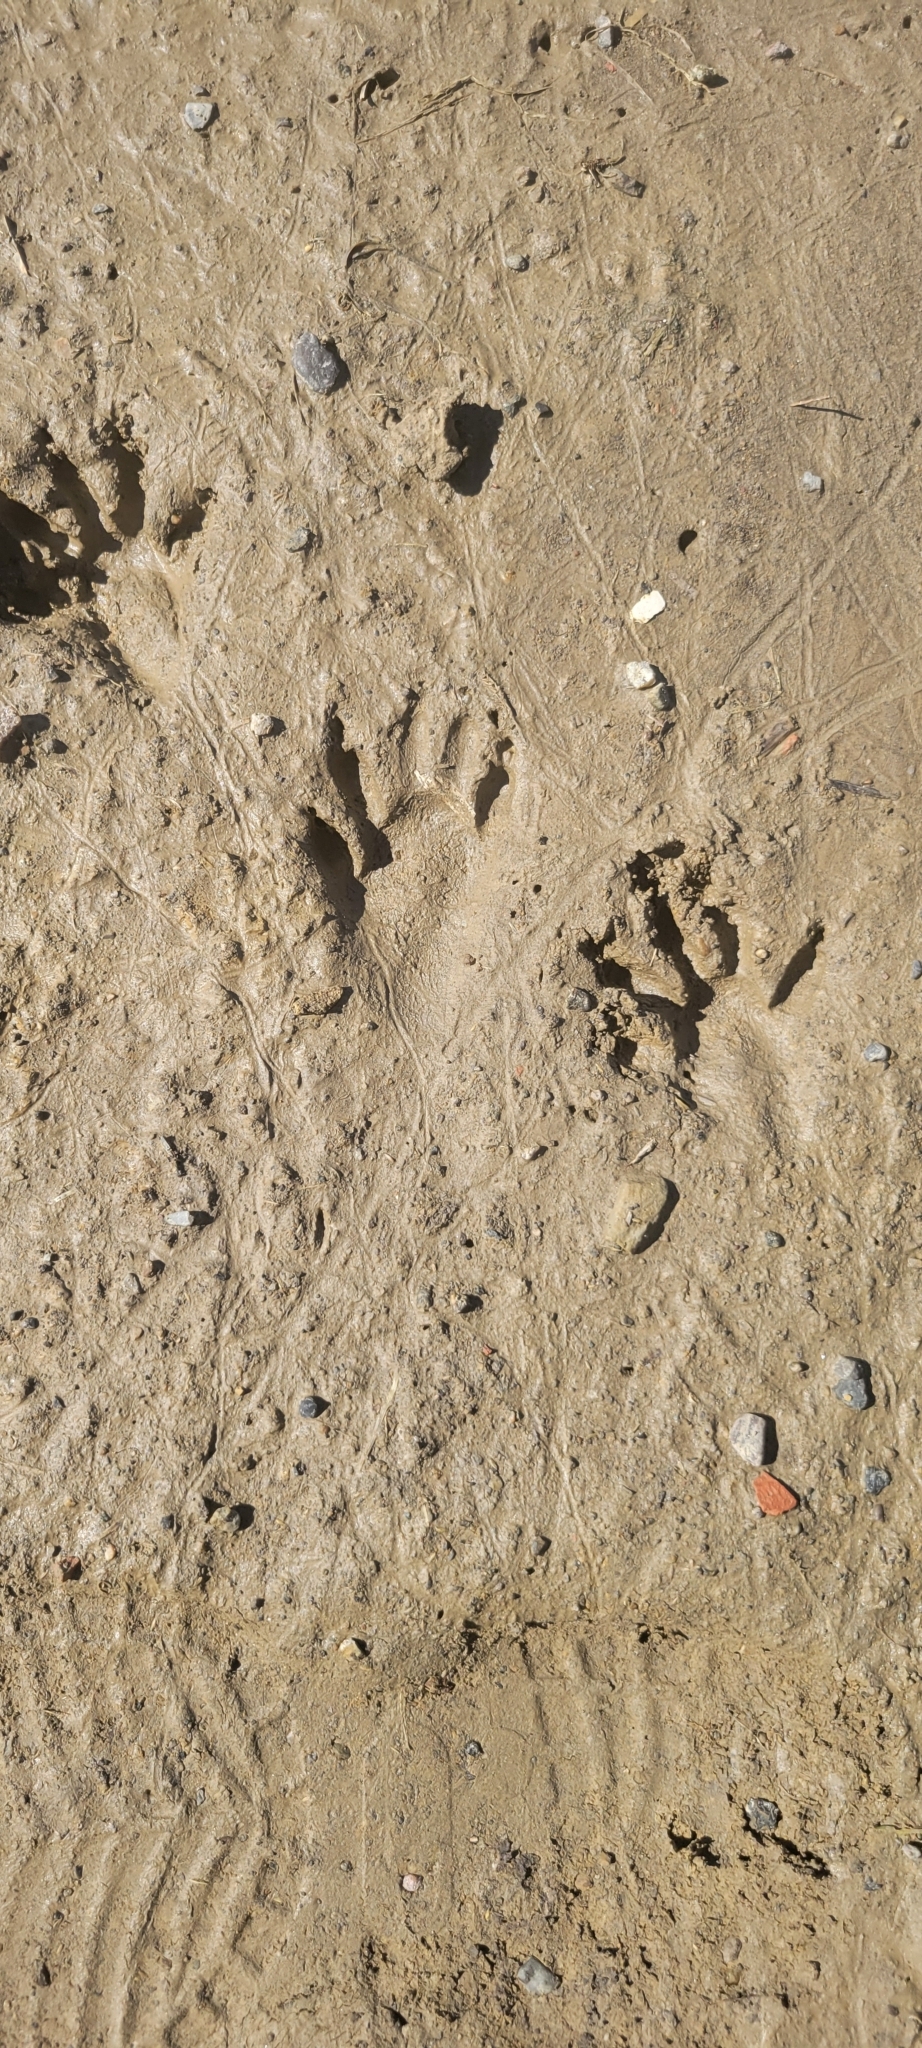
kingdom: Animalia
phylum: Chordata
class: Mammalia
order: Carnivora
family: Procyonidae
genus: Procyon
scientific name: Procyon lotor
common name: Raccoon
